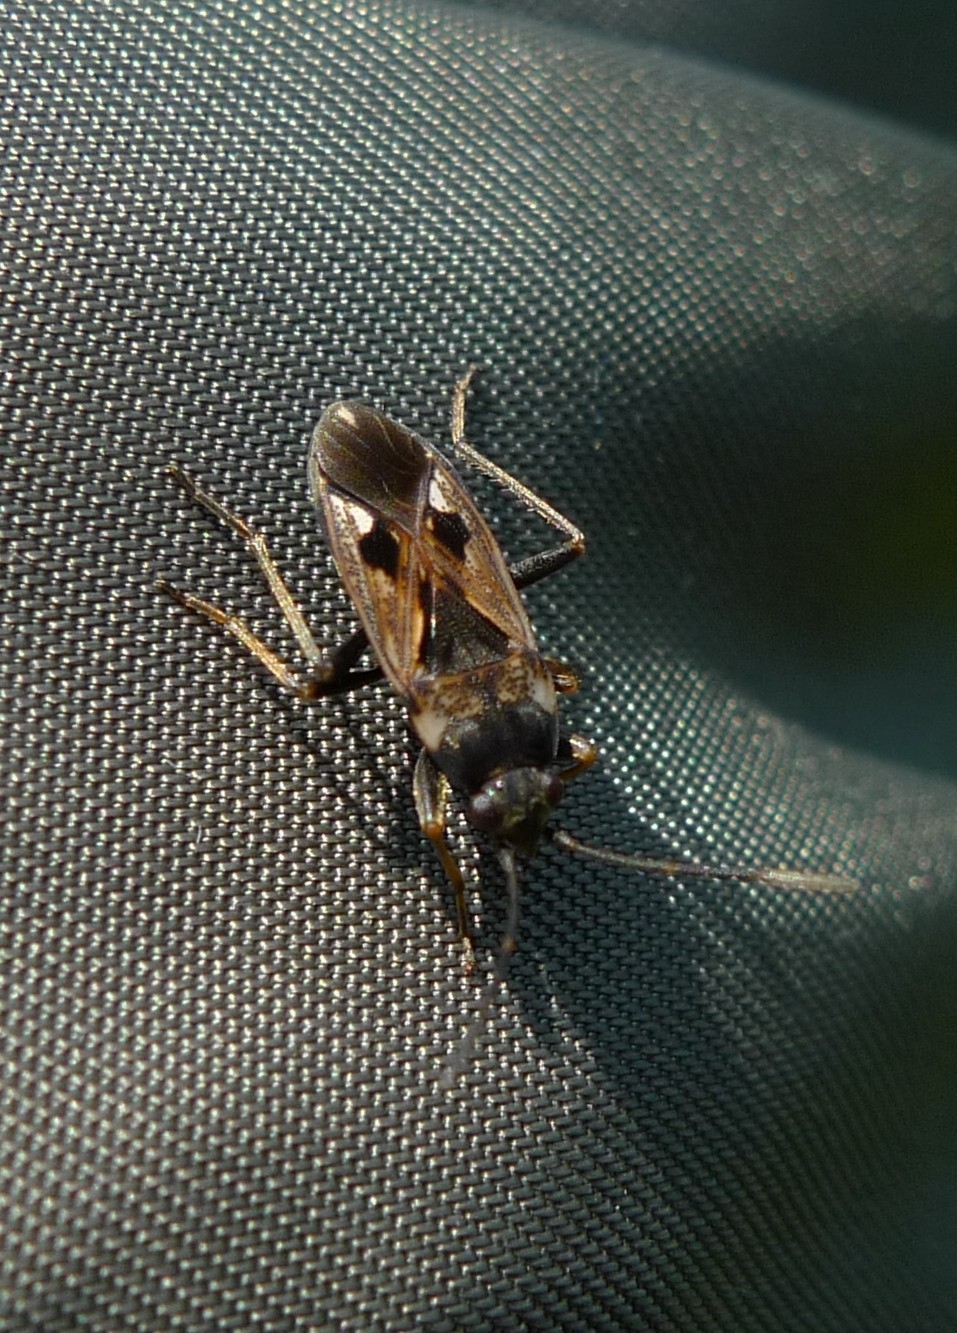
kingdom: Animalia
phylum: Arthropoda
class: Insecta
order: Hemiptera
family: Rhyparochromidae
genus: Rhyparochromus
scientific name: Rhyparochromus vulgaris
